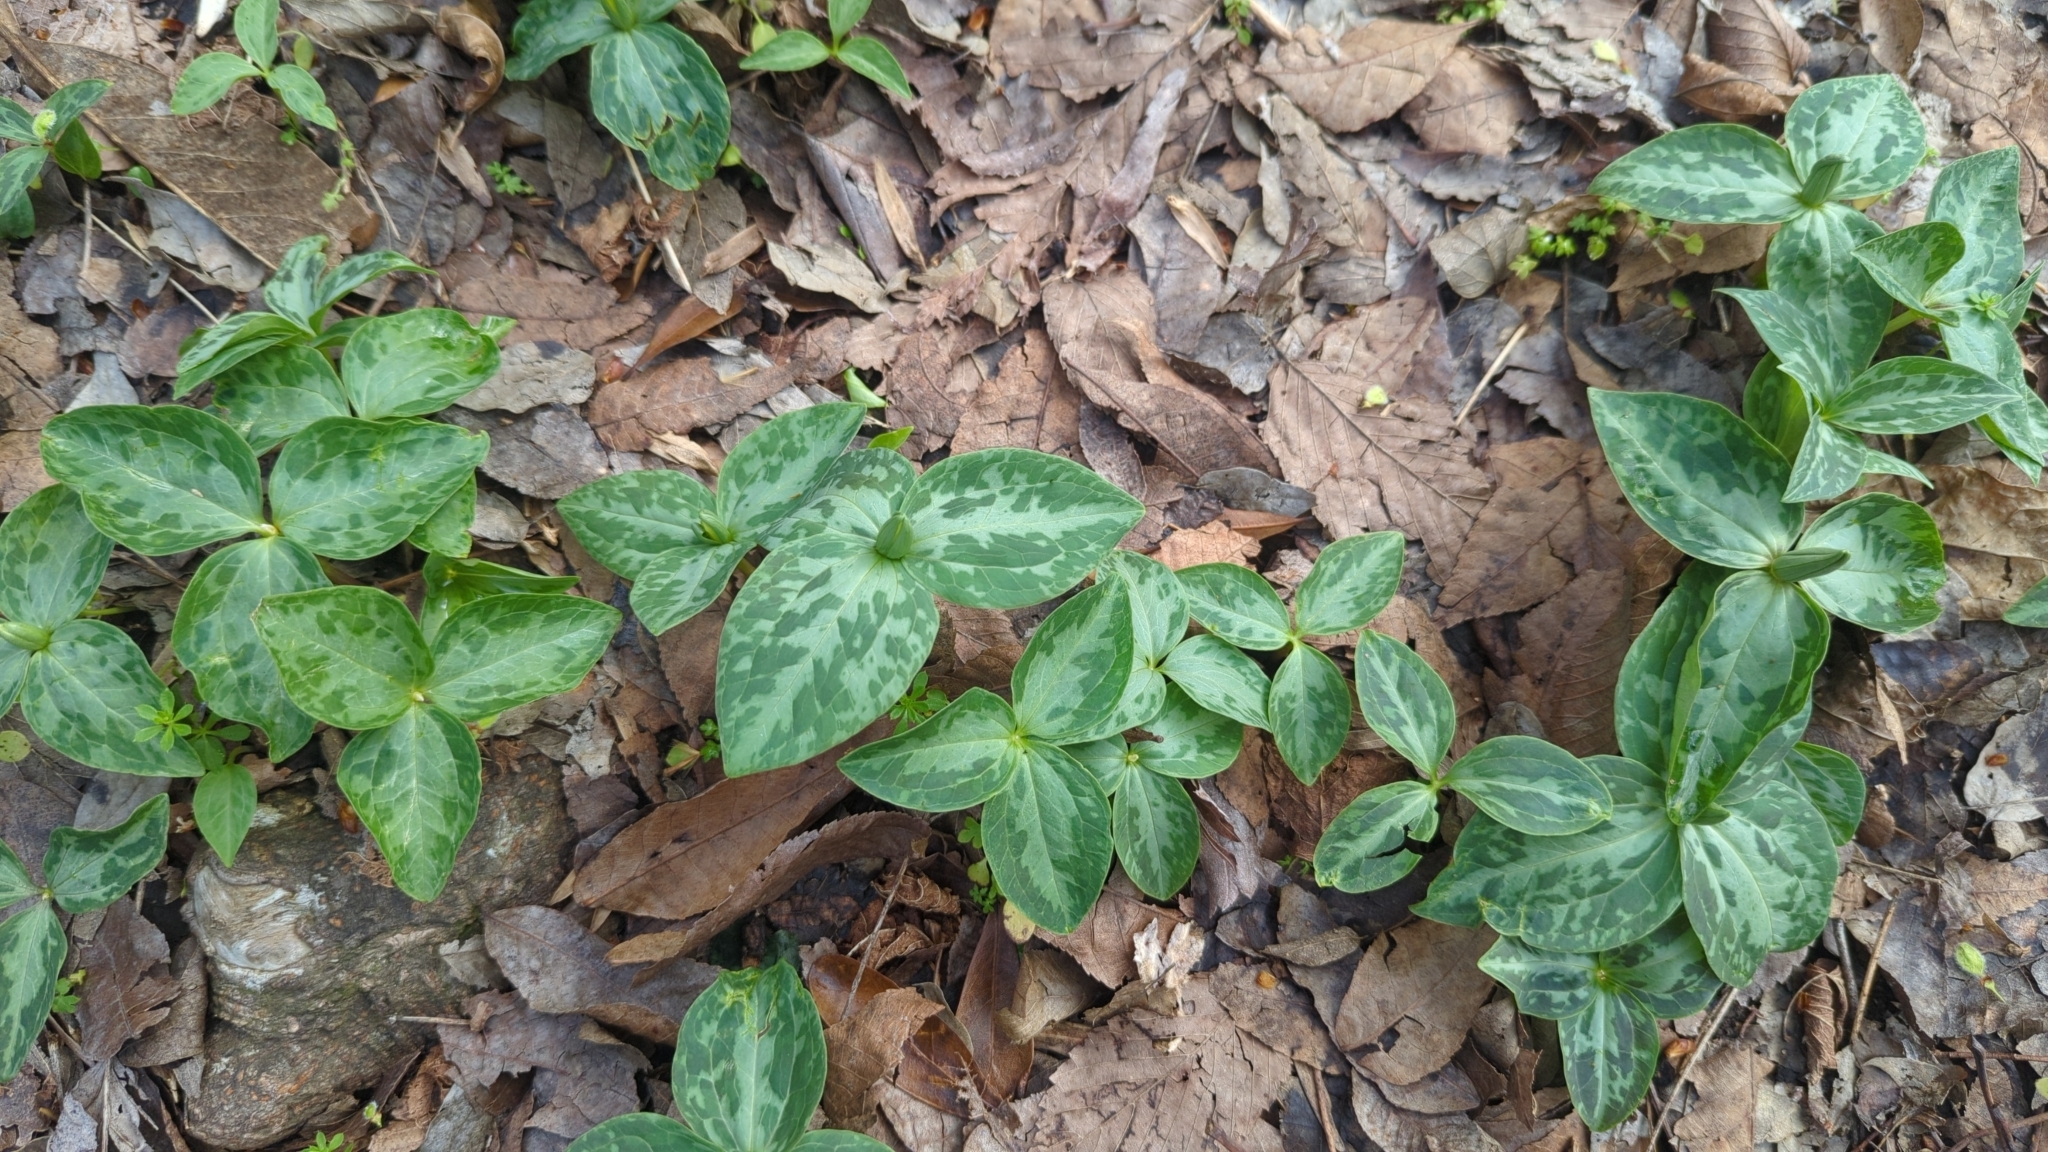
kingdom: Plantae
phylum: Tracheophyta
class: Liliopsida
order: Liliales
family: Melanthiaceae
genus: Trillium
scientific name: Trillium foetidissimum
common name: Mississippi river trillium
